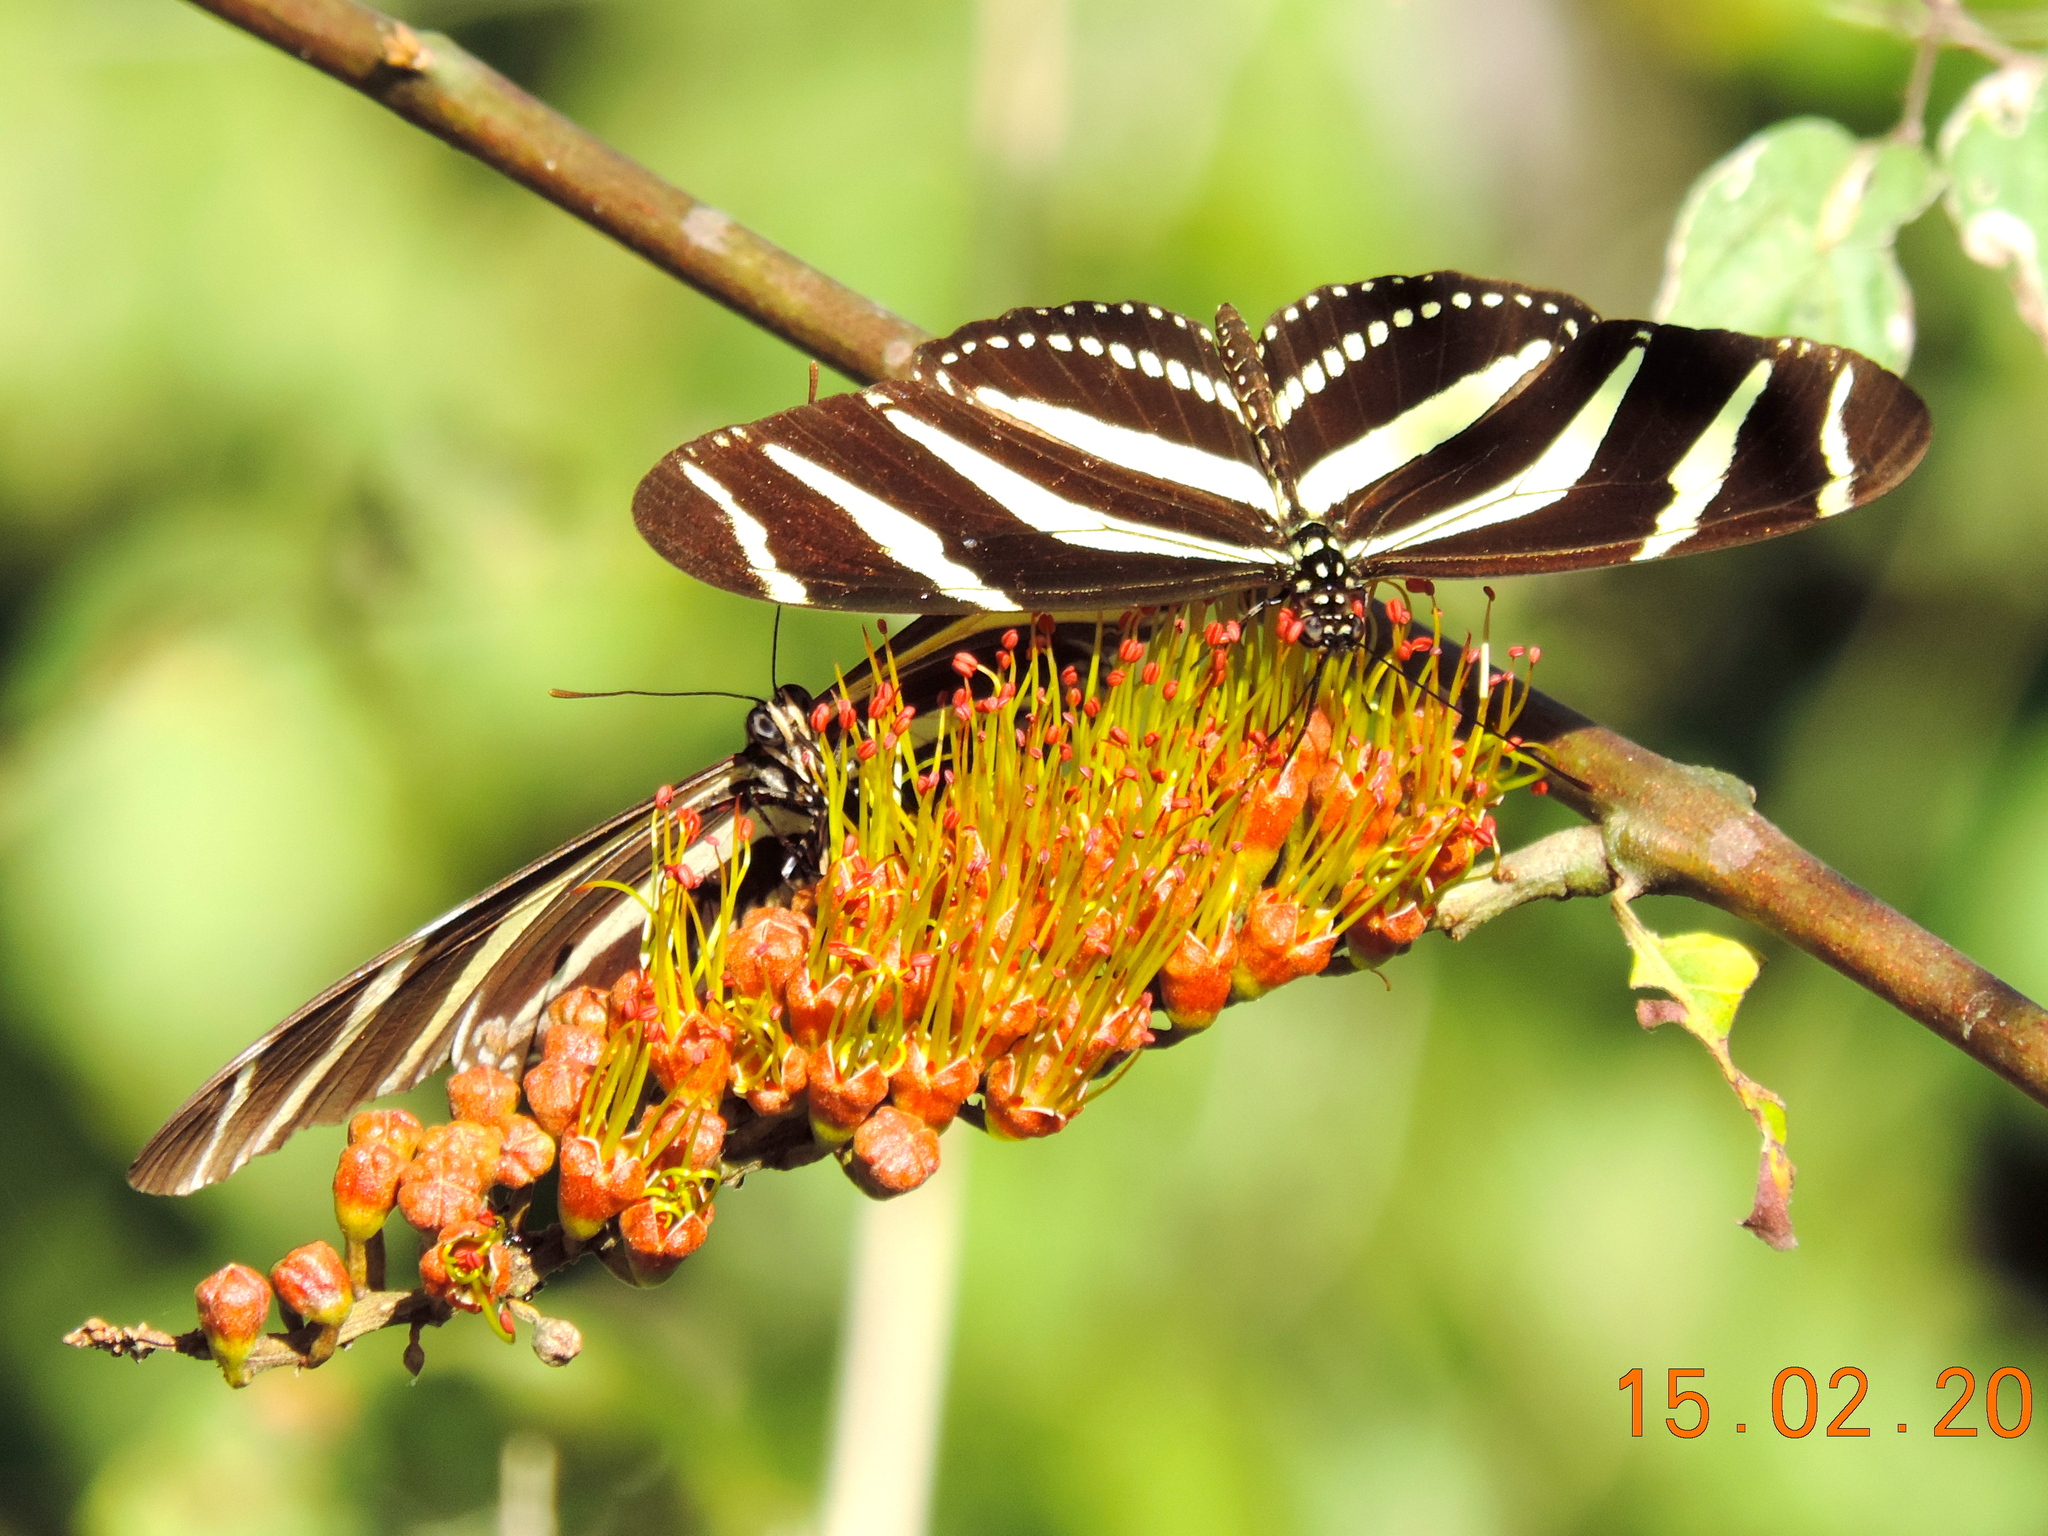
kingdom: Animalia
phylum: Arthropoda
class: Insecta
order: Lepidoptera
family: Nymphalidae
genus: Heliconius
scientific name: Heliconius charithonia
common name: Zebra long wing
